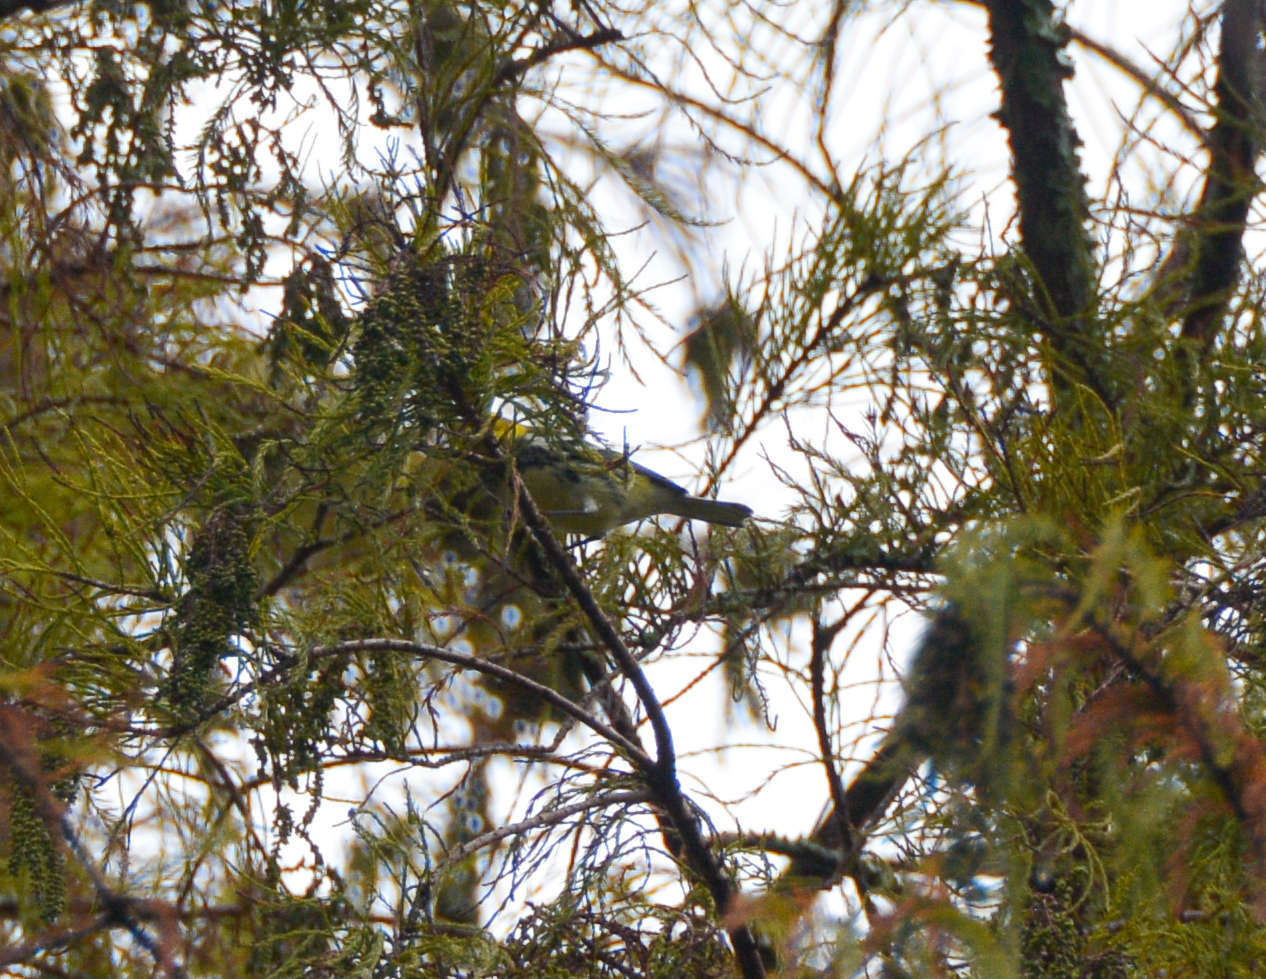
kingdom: Animalia
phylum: Chordata
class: Aves
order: Passeriformes
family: Parulidae
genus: Setophaga
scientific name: Setophaga virens
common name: Black-throated green warbler
